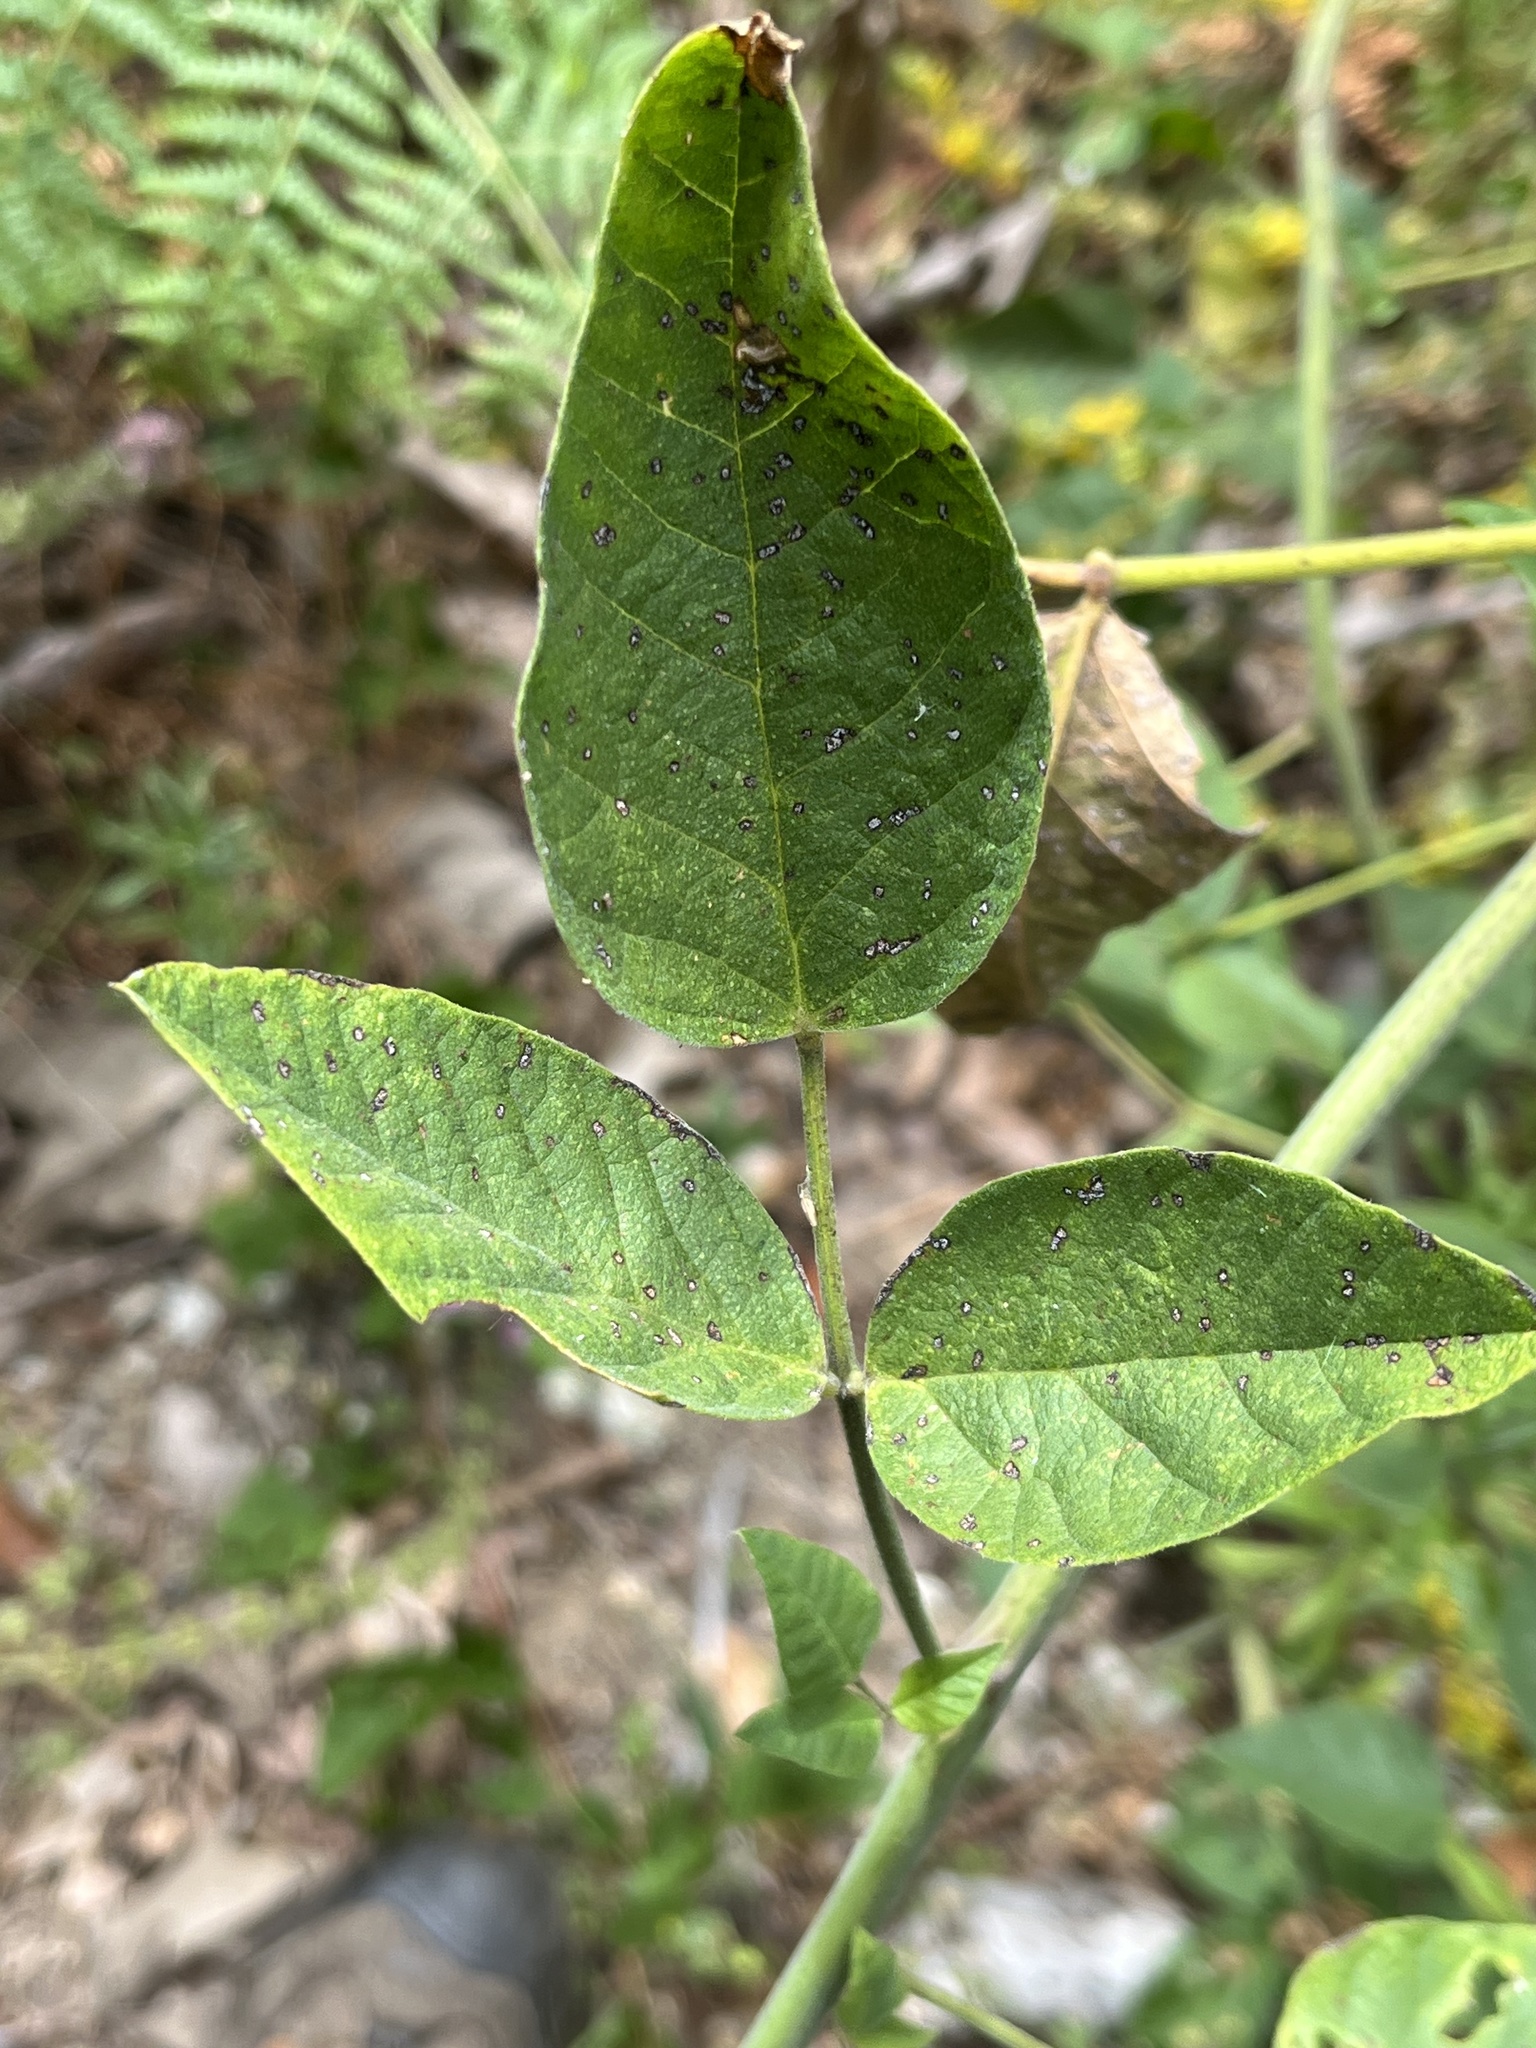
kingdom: Plantae
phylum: Tracheophyta
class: Magnoliopsida
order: Fabales
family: Fabaceae
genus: Hoita
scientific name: Hoita macrostachya
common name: Leatherroot
